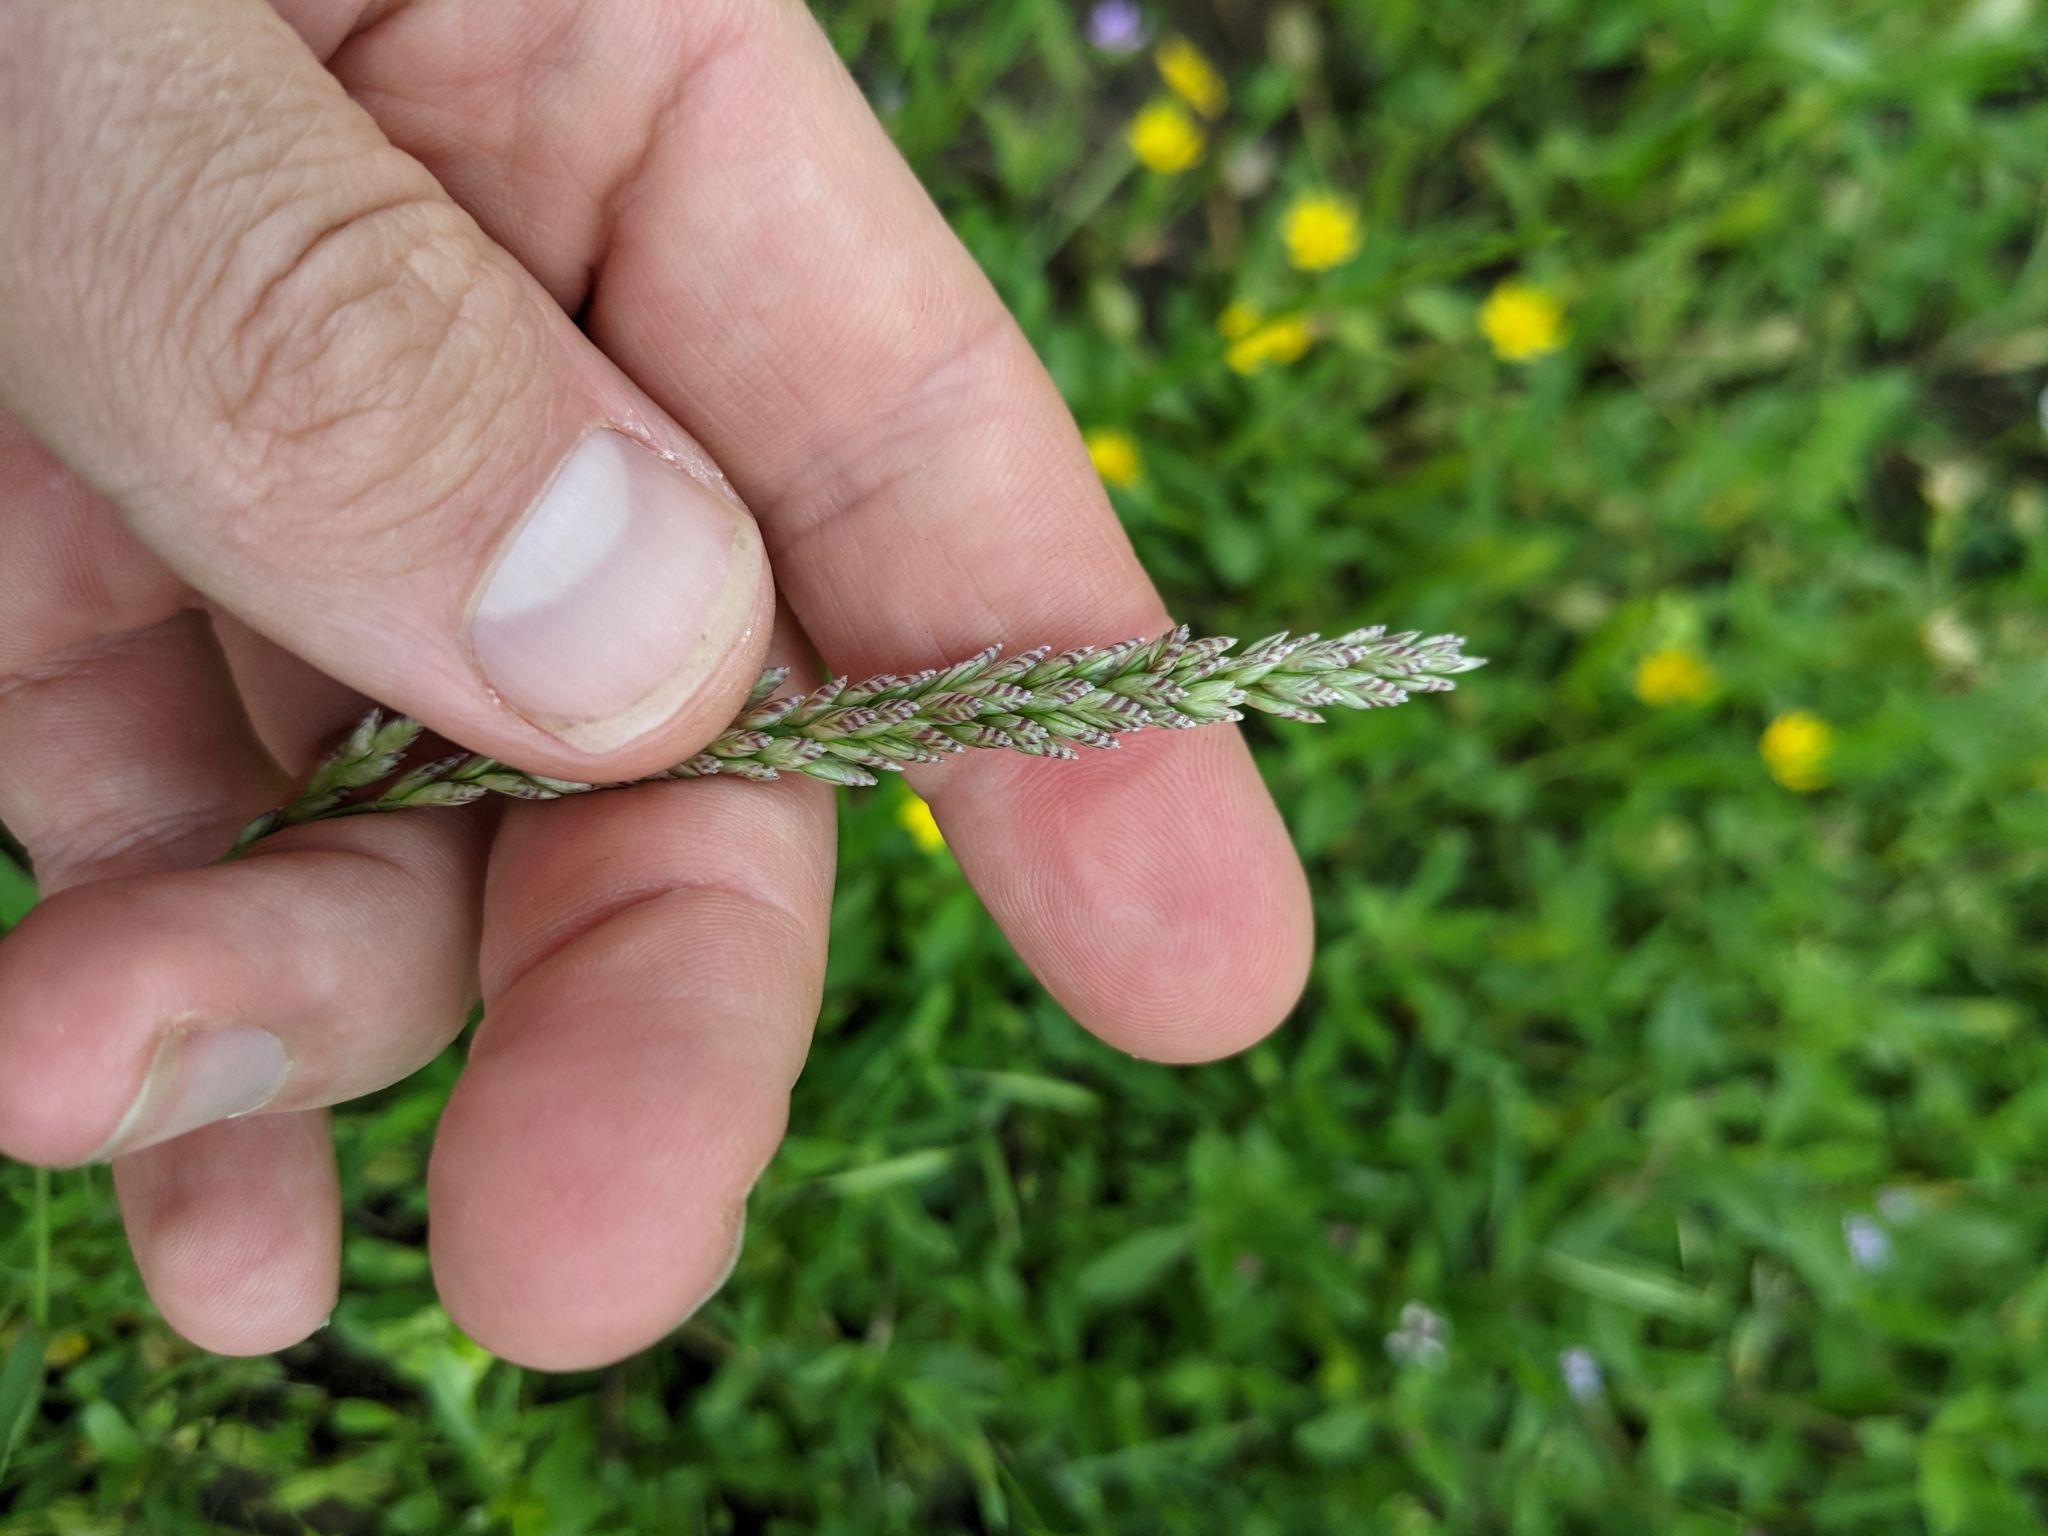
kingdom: Plantae
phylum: Tracheophyta
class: Liliopsida
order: Poales
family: Poaceae
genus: Tridens
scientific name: Tridens albescens
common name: White tridens
